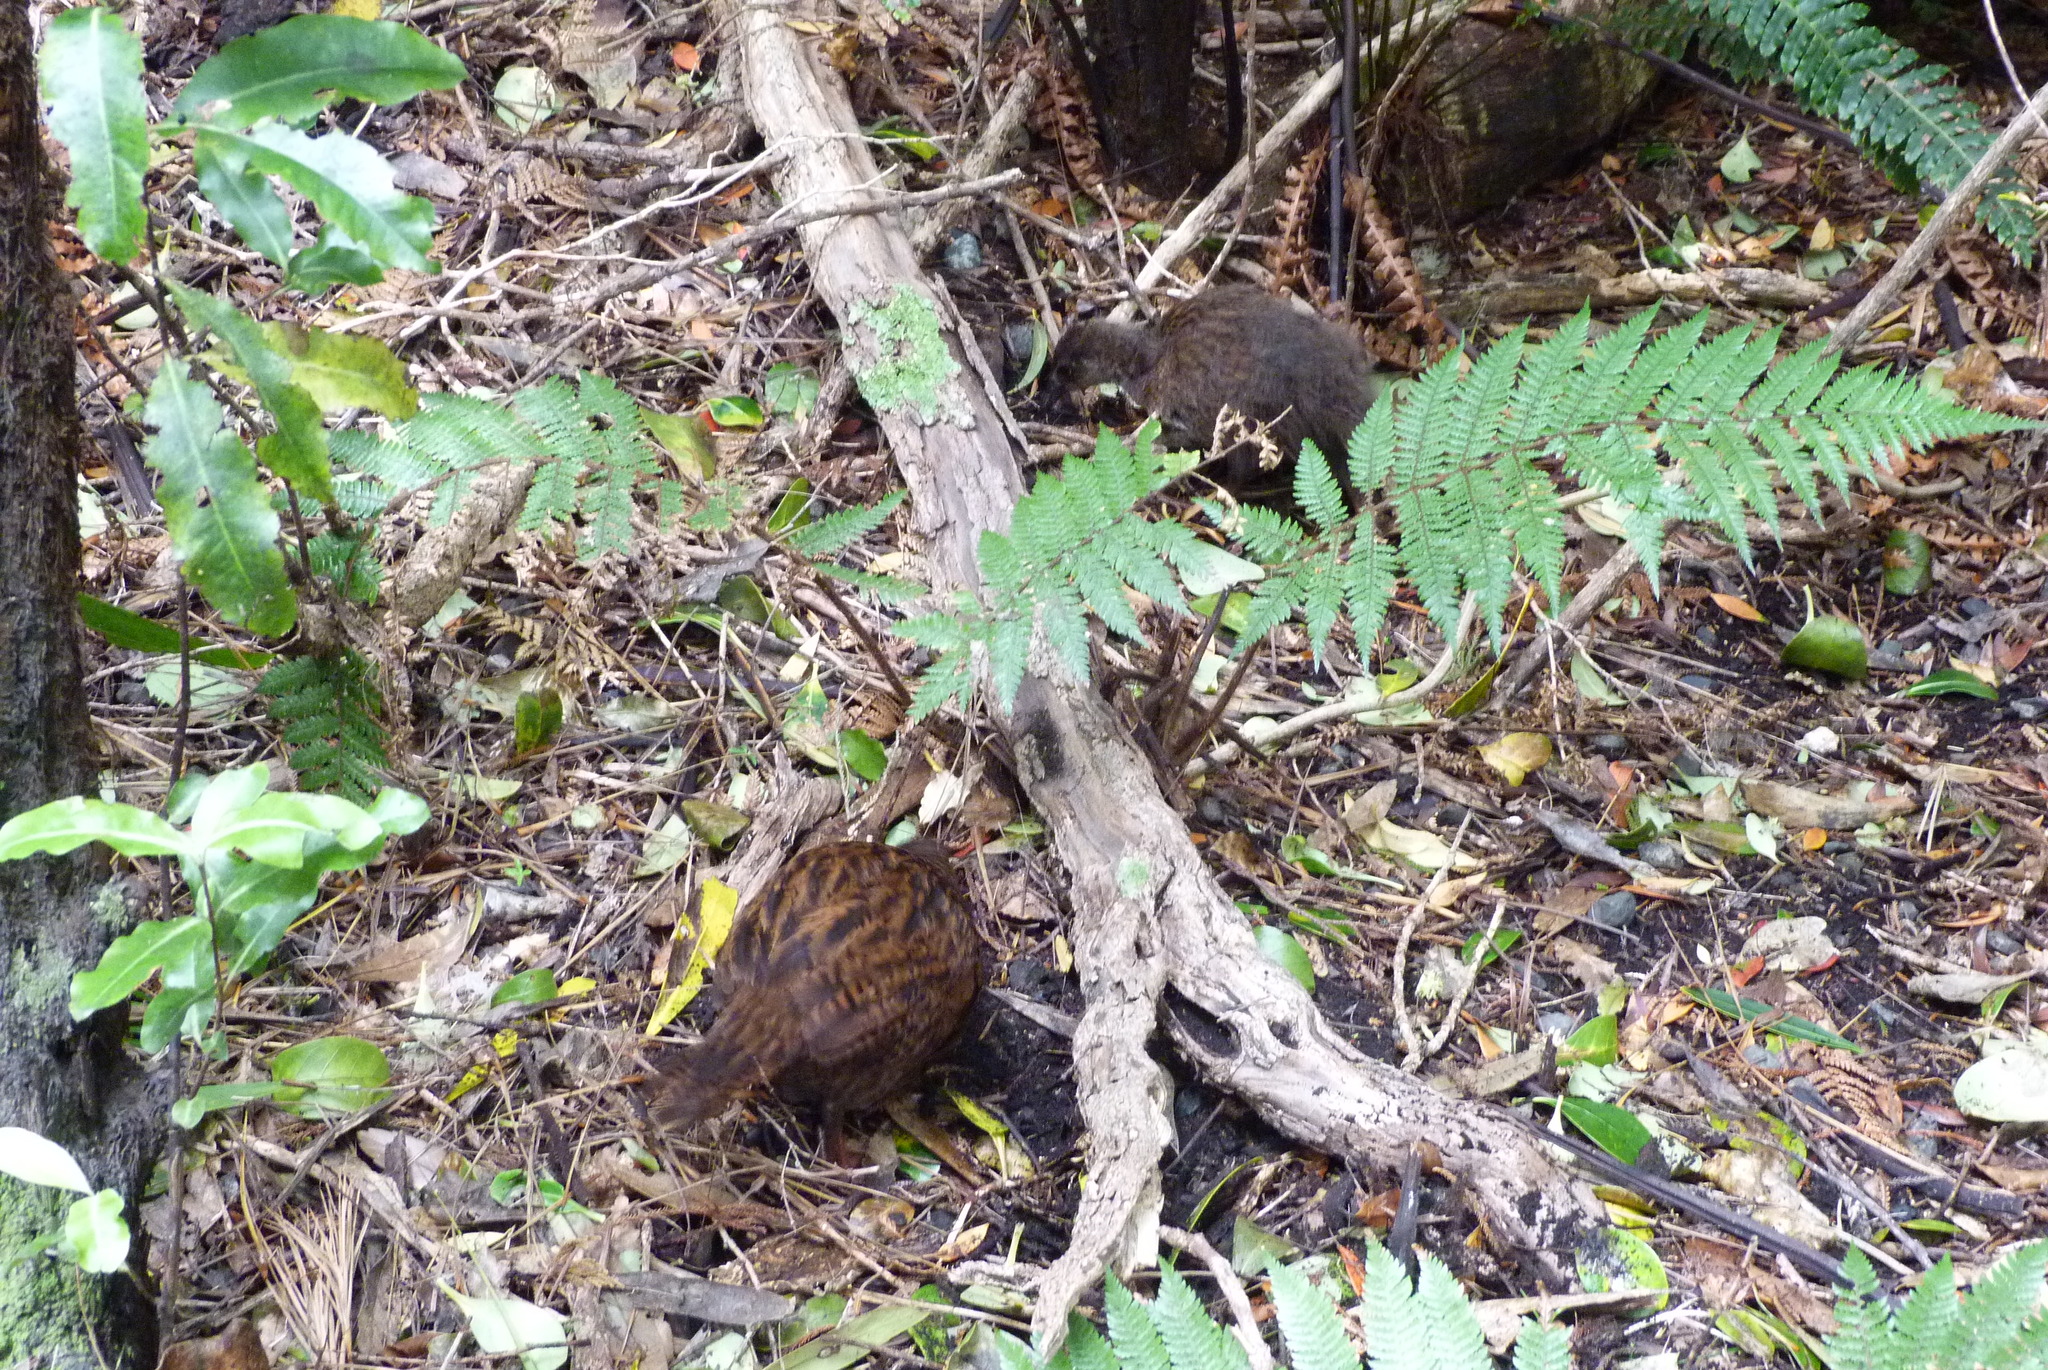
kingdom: Animalia
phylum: Chordata
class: Aves
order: Gruiformes
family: Rallidae
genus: Gallirallus
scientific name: Gallirallus australis
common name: Weka
